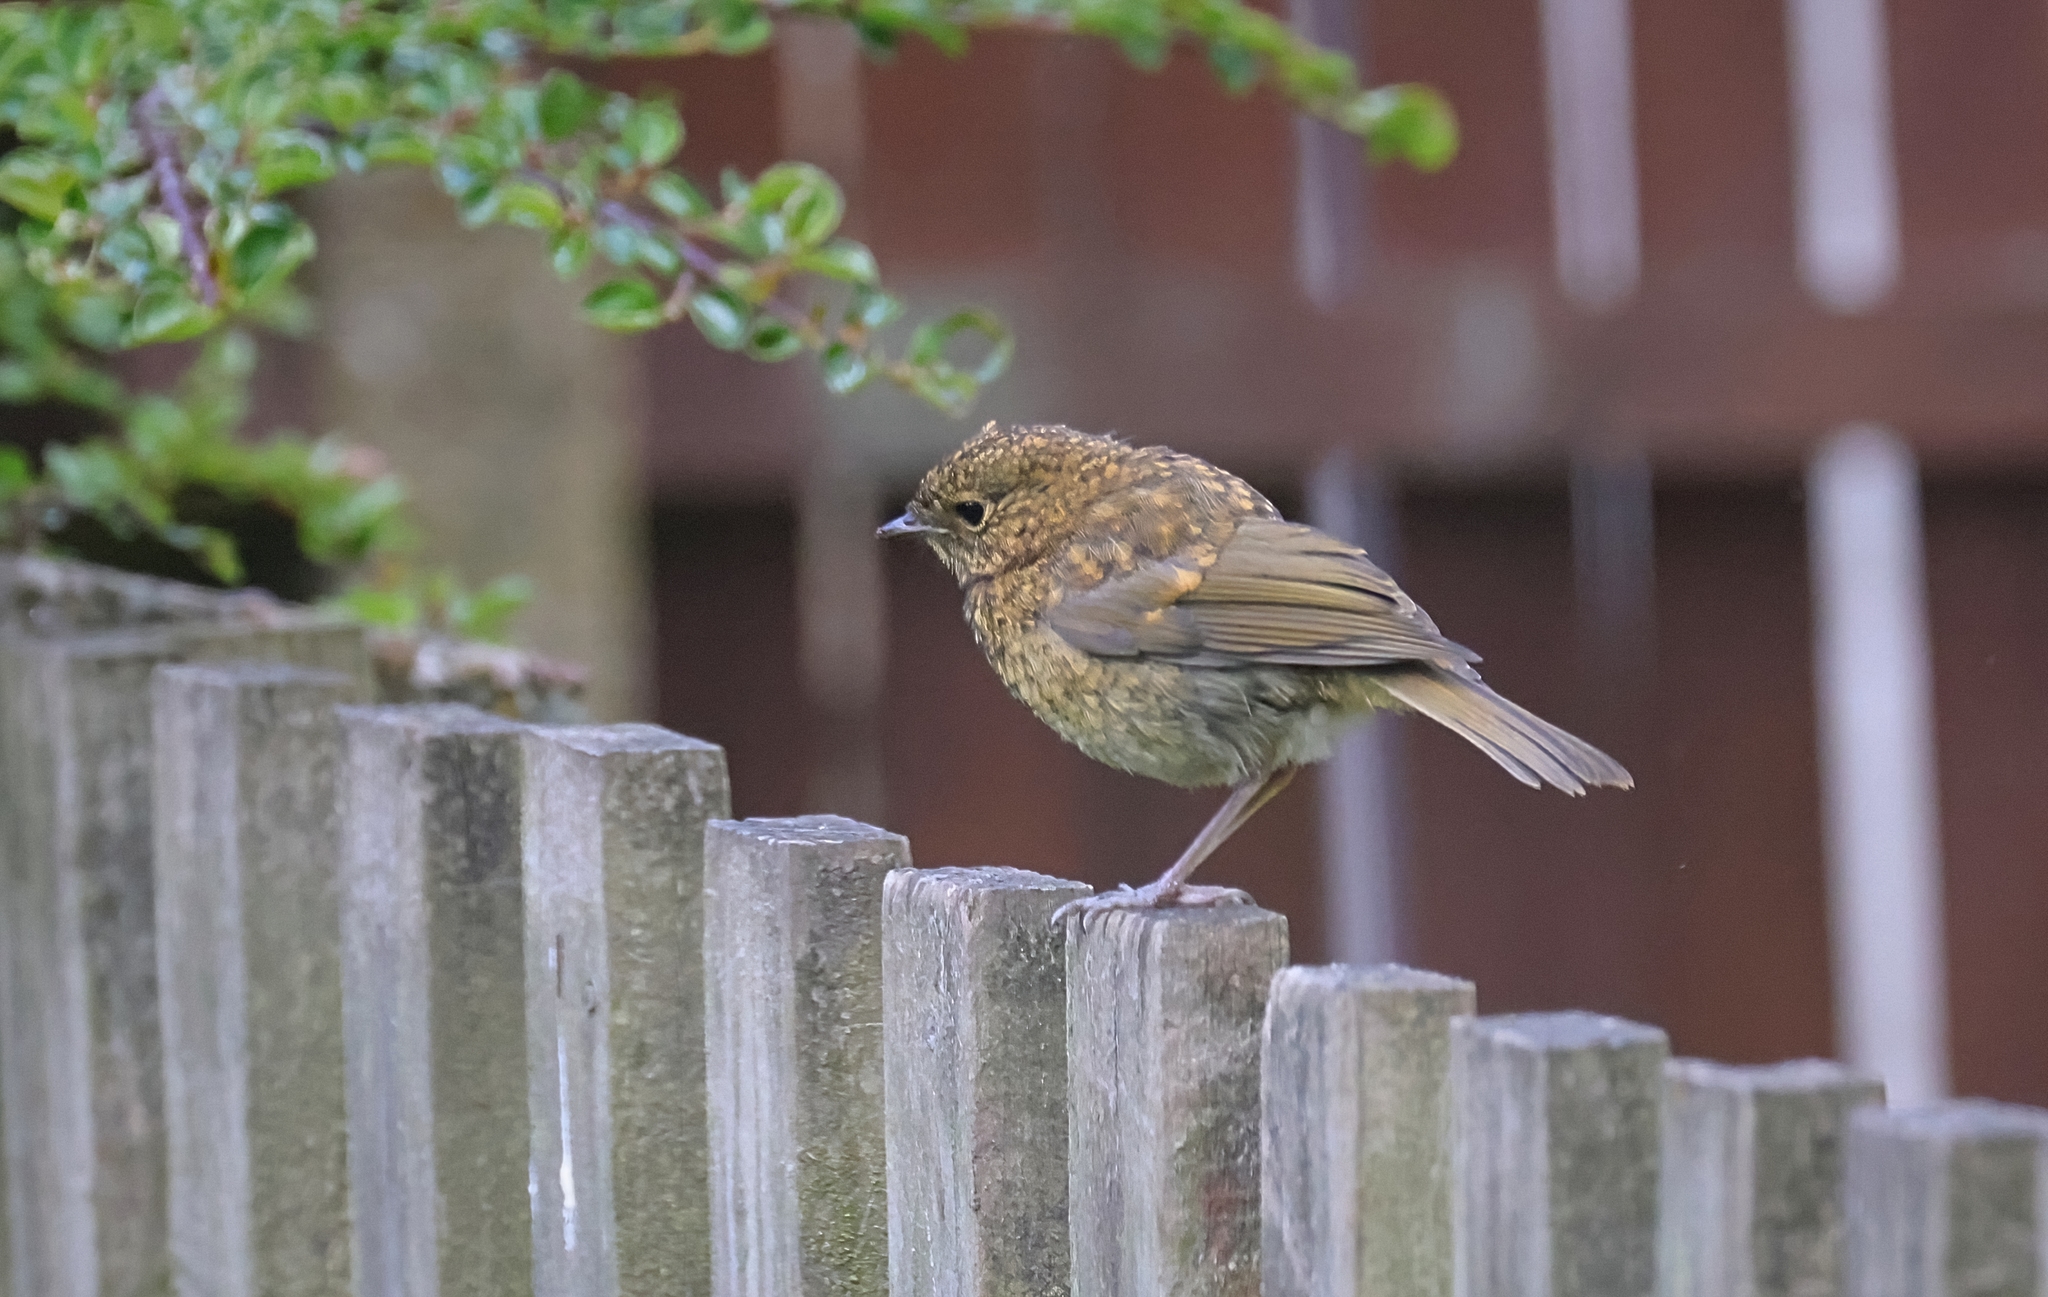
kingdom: Animalia
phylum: Chordata
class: Aves
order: Passeriformes
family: Muscicapidae
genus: Erithacus
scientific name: Erithacus rubecula
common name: European robin
